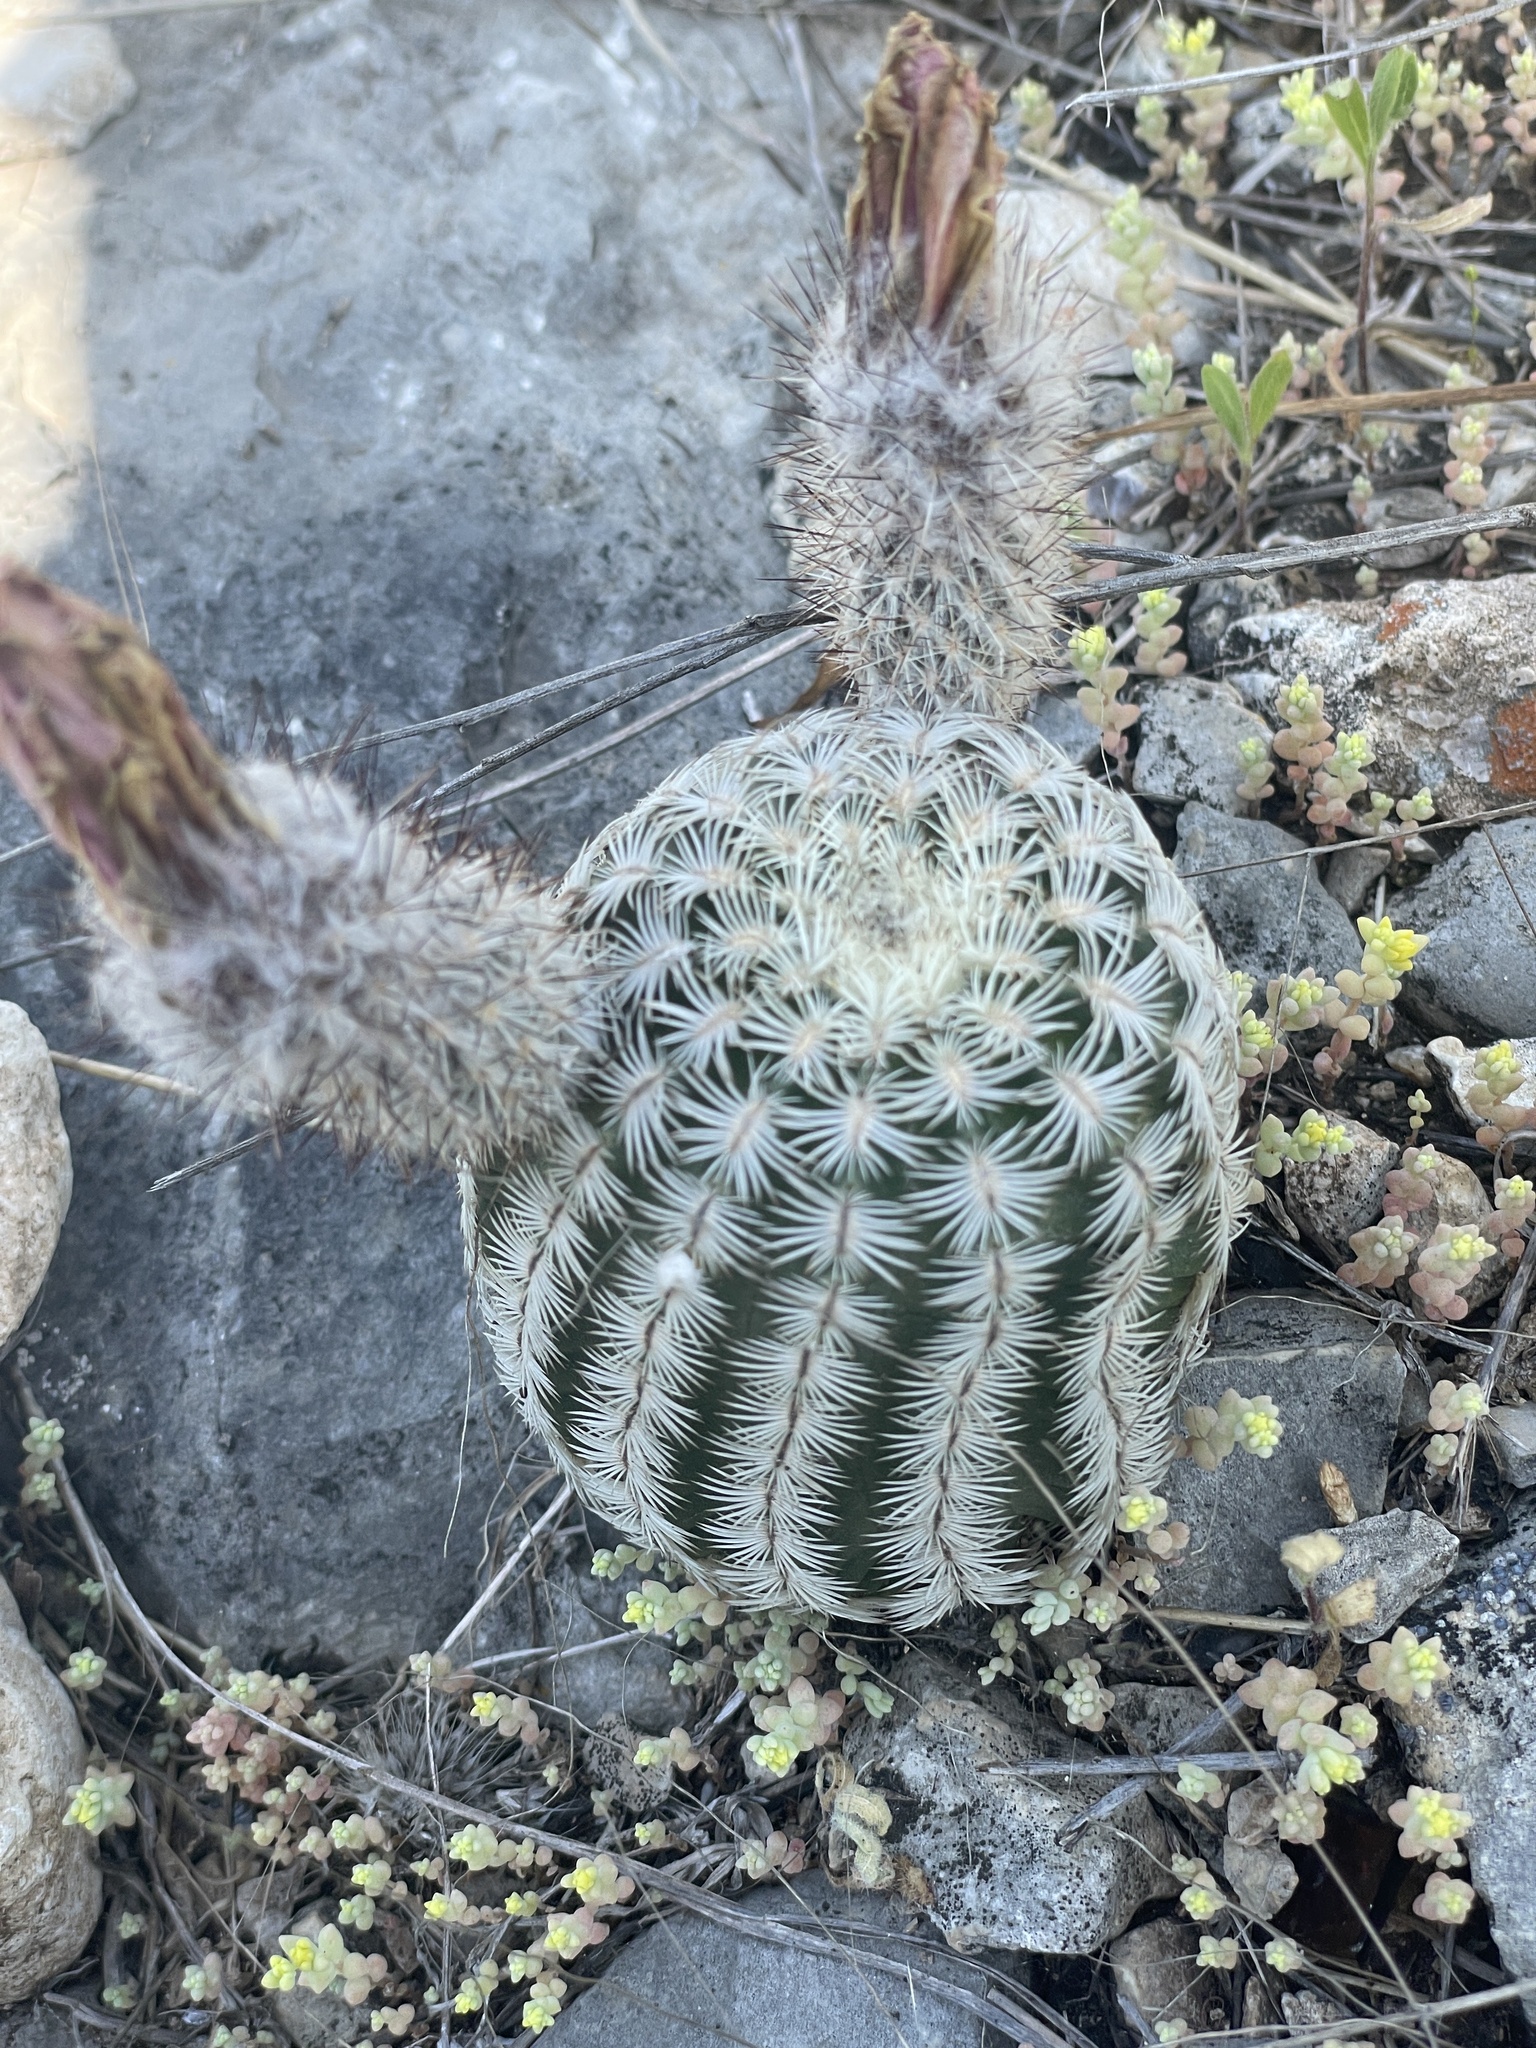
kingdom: Plantae
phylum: Tracheophyta
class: Magnoliopsida
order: Caryophyllales
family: Cactaceae
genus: Echinocereus
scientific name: Echinocereus reichenbachii
